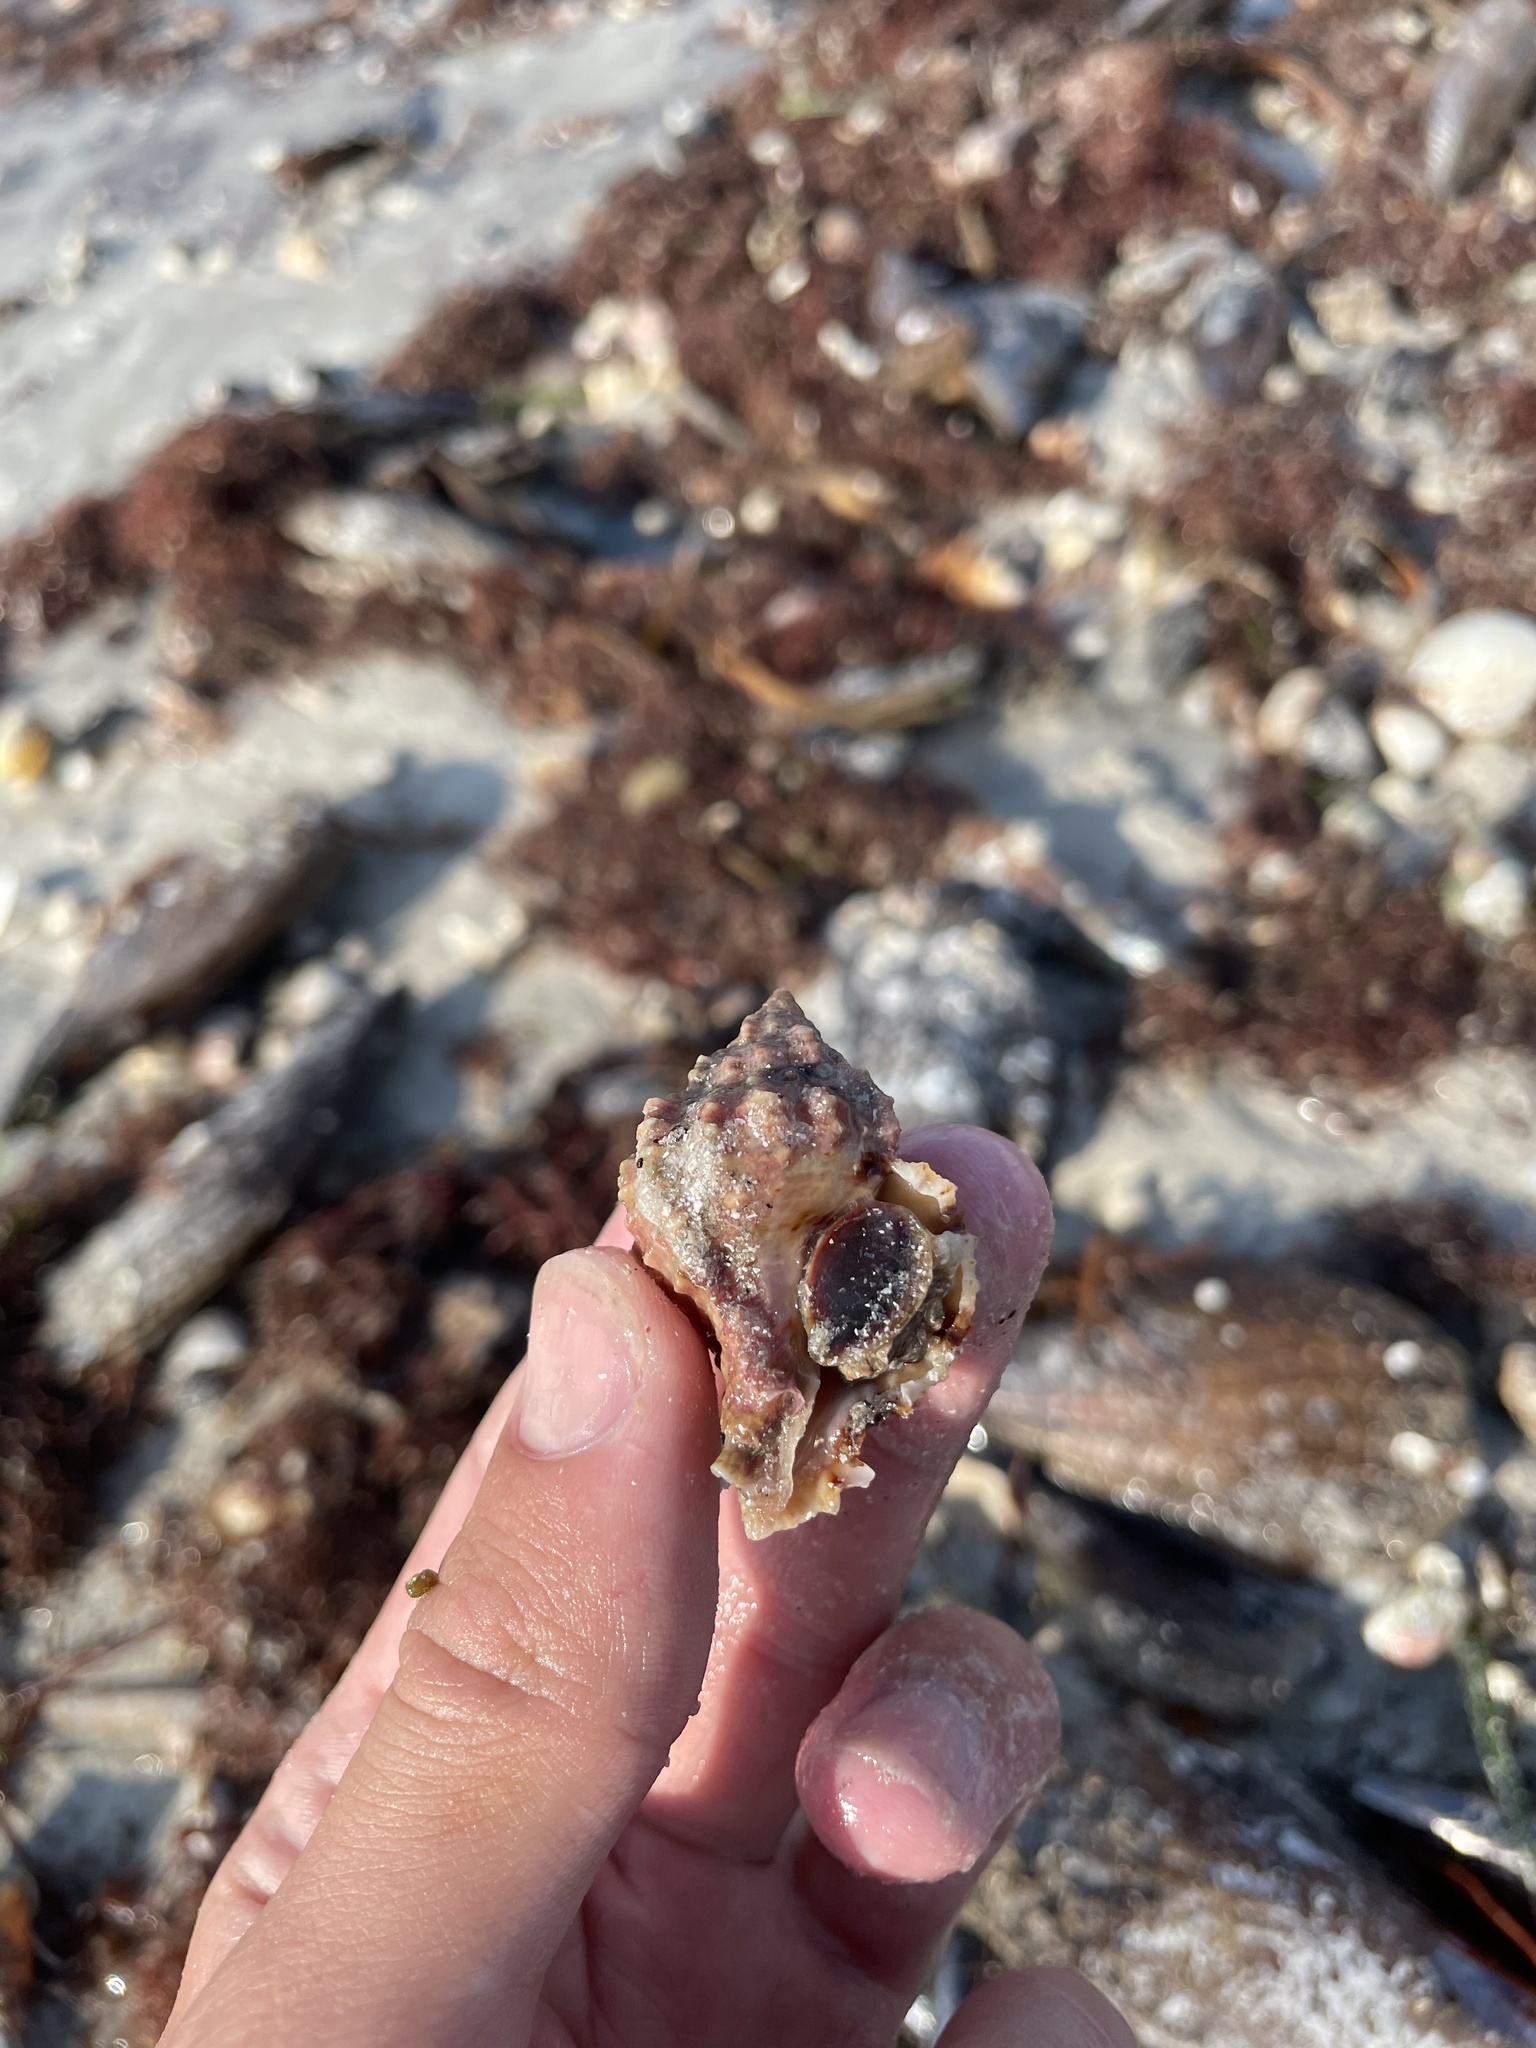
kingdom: Animalia
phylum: Mollusca
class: Gastropoda
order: Neogastropoda
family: Muricidae
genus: Phyllonotus
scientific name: Phyllonotus pomum
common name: Apple murex
